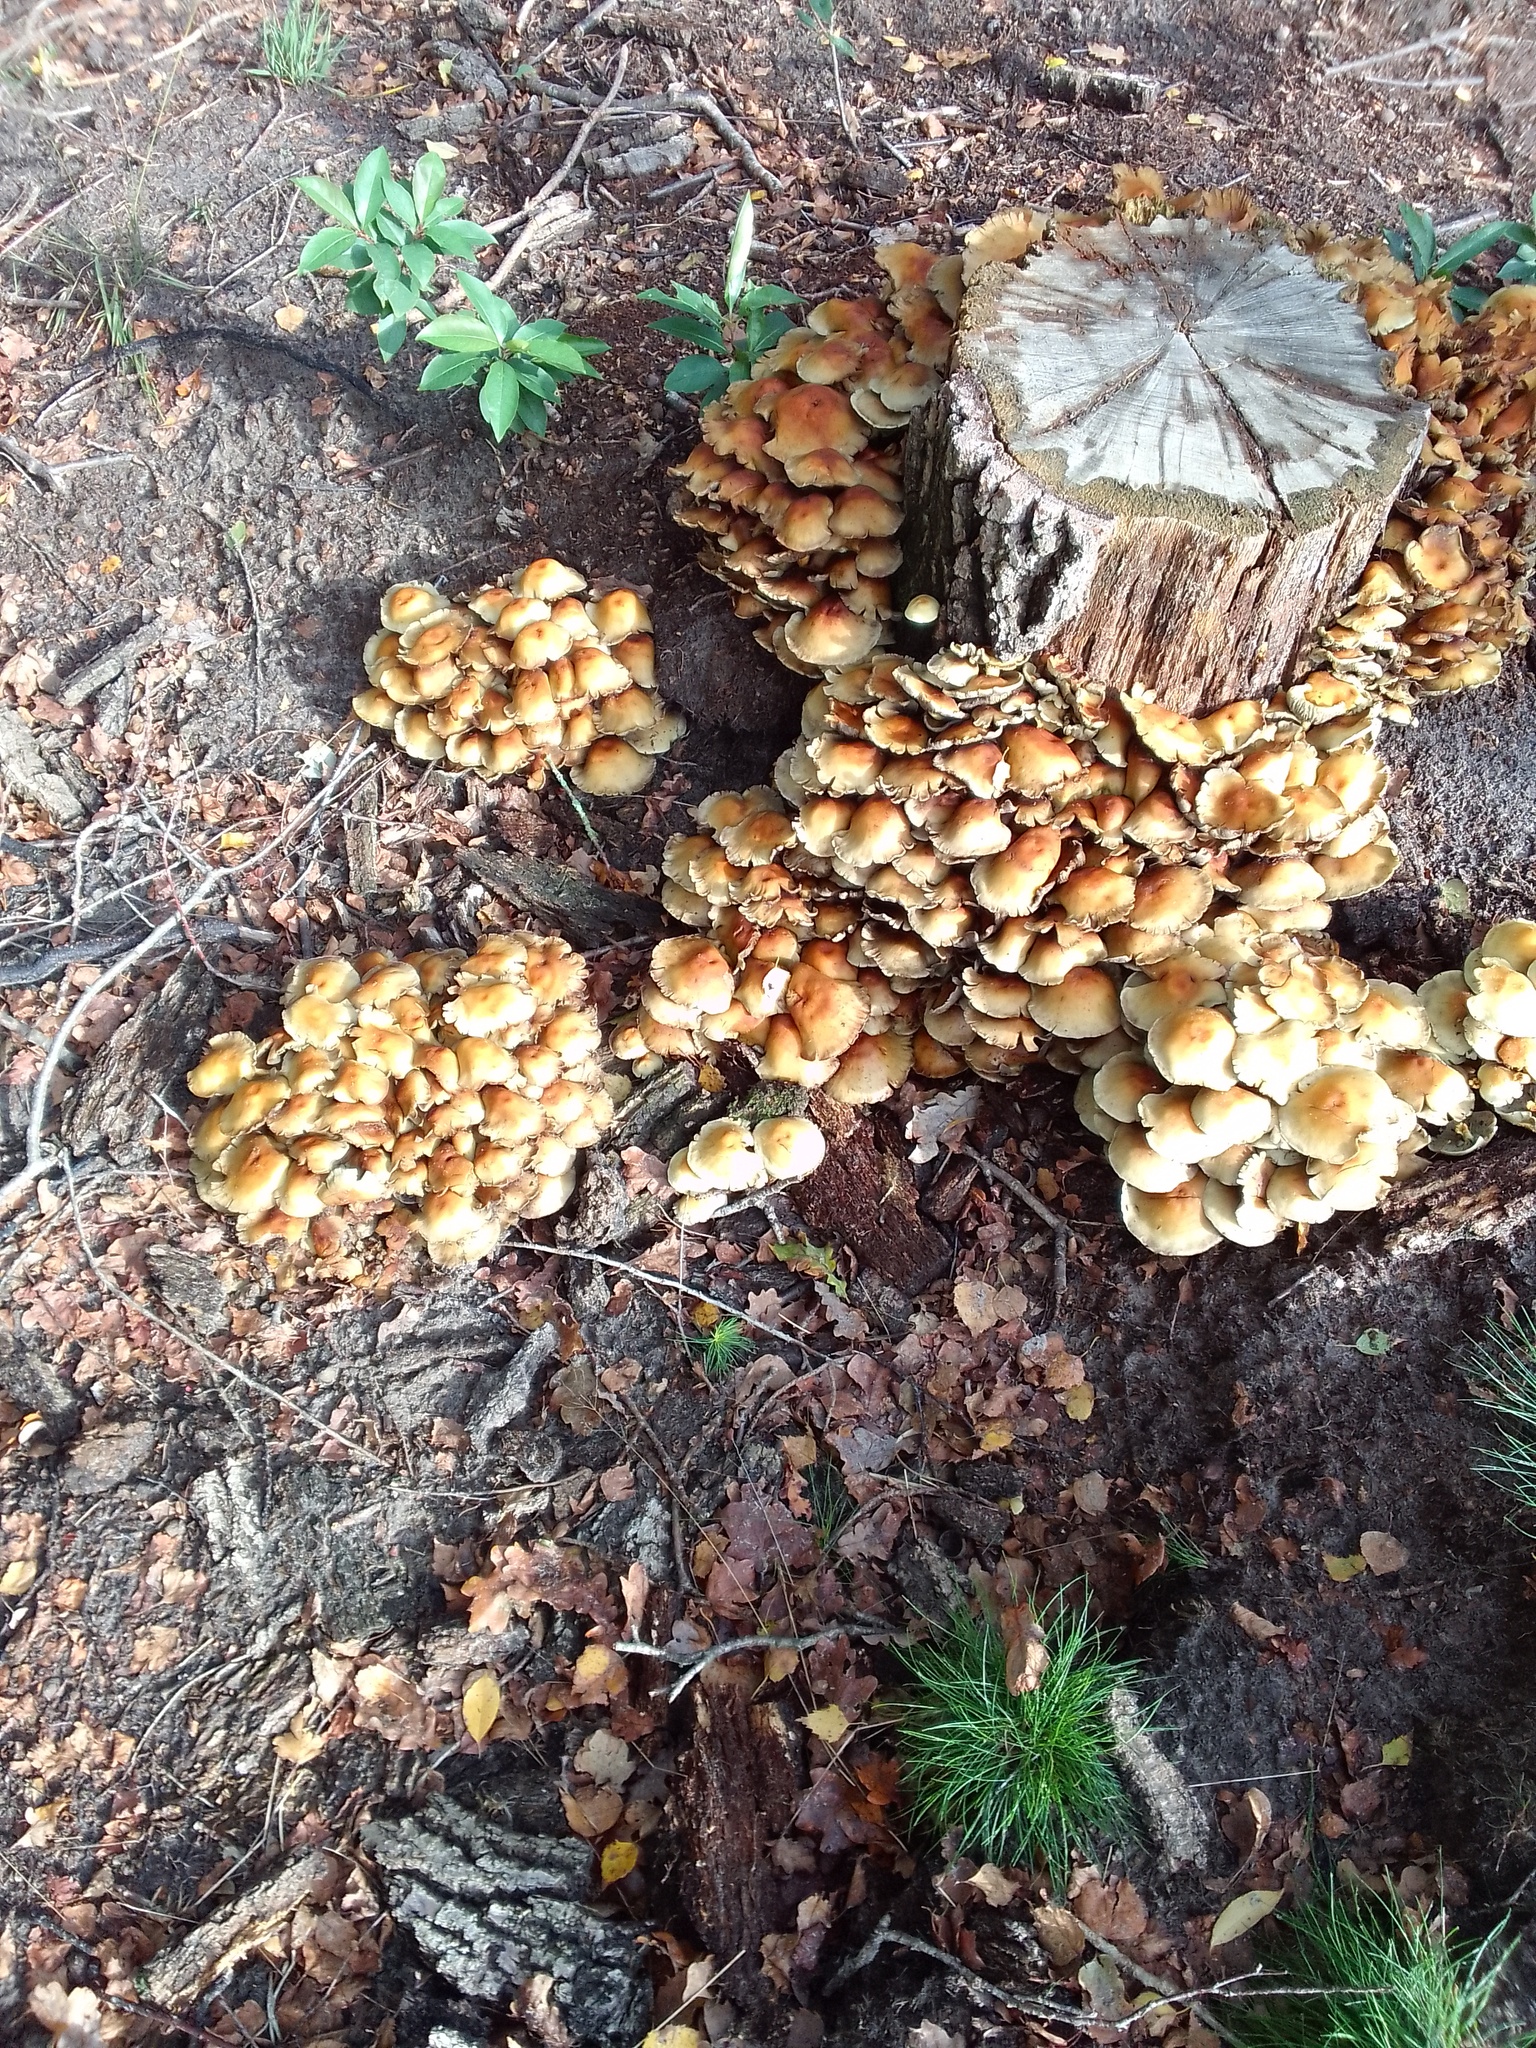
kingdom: Fungi
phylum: Basidiomycota
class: Agaricomycetes
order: Agaricales
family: Strophariaceae
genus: Hypholoma
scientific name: Hypholoma fasciculare
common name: Sulphur tuft
